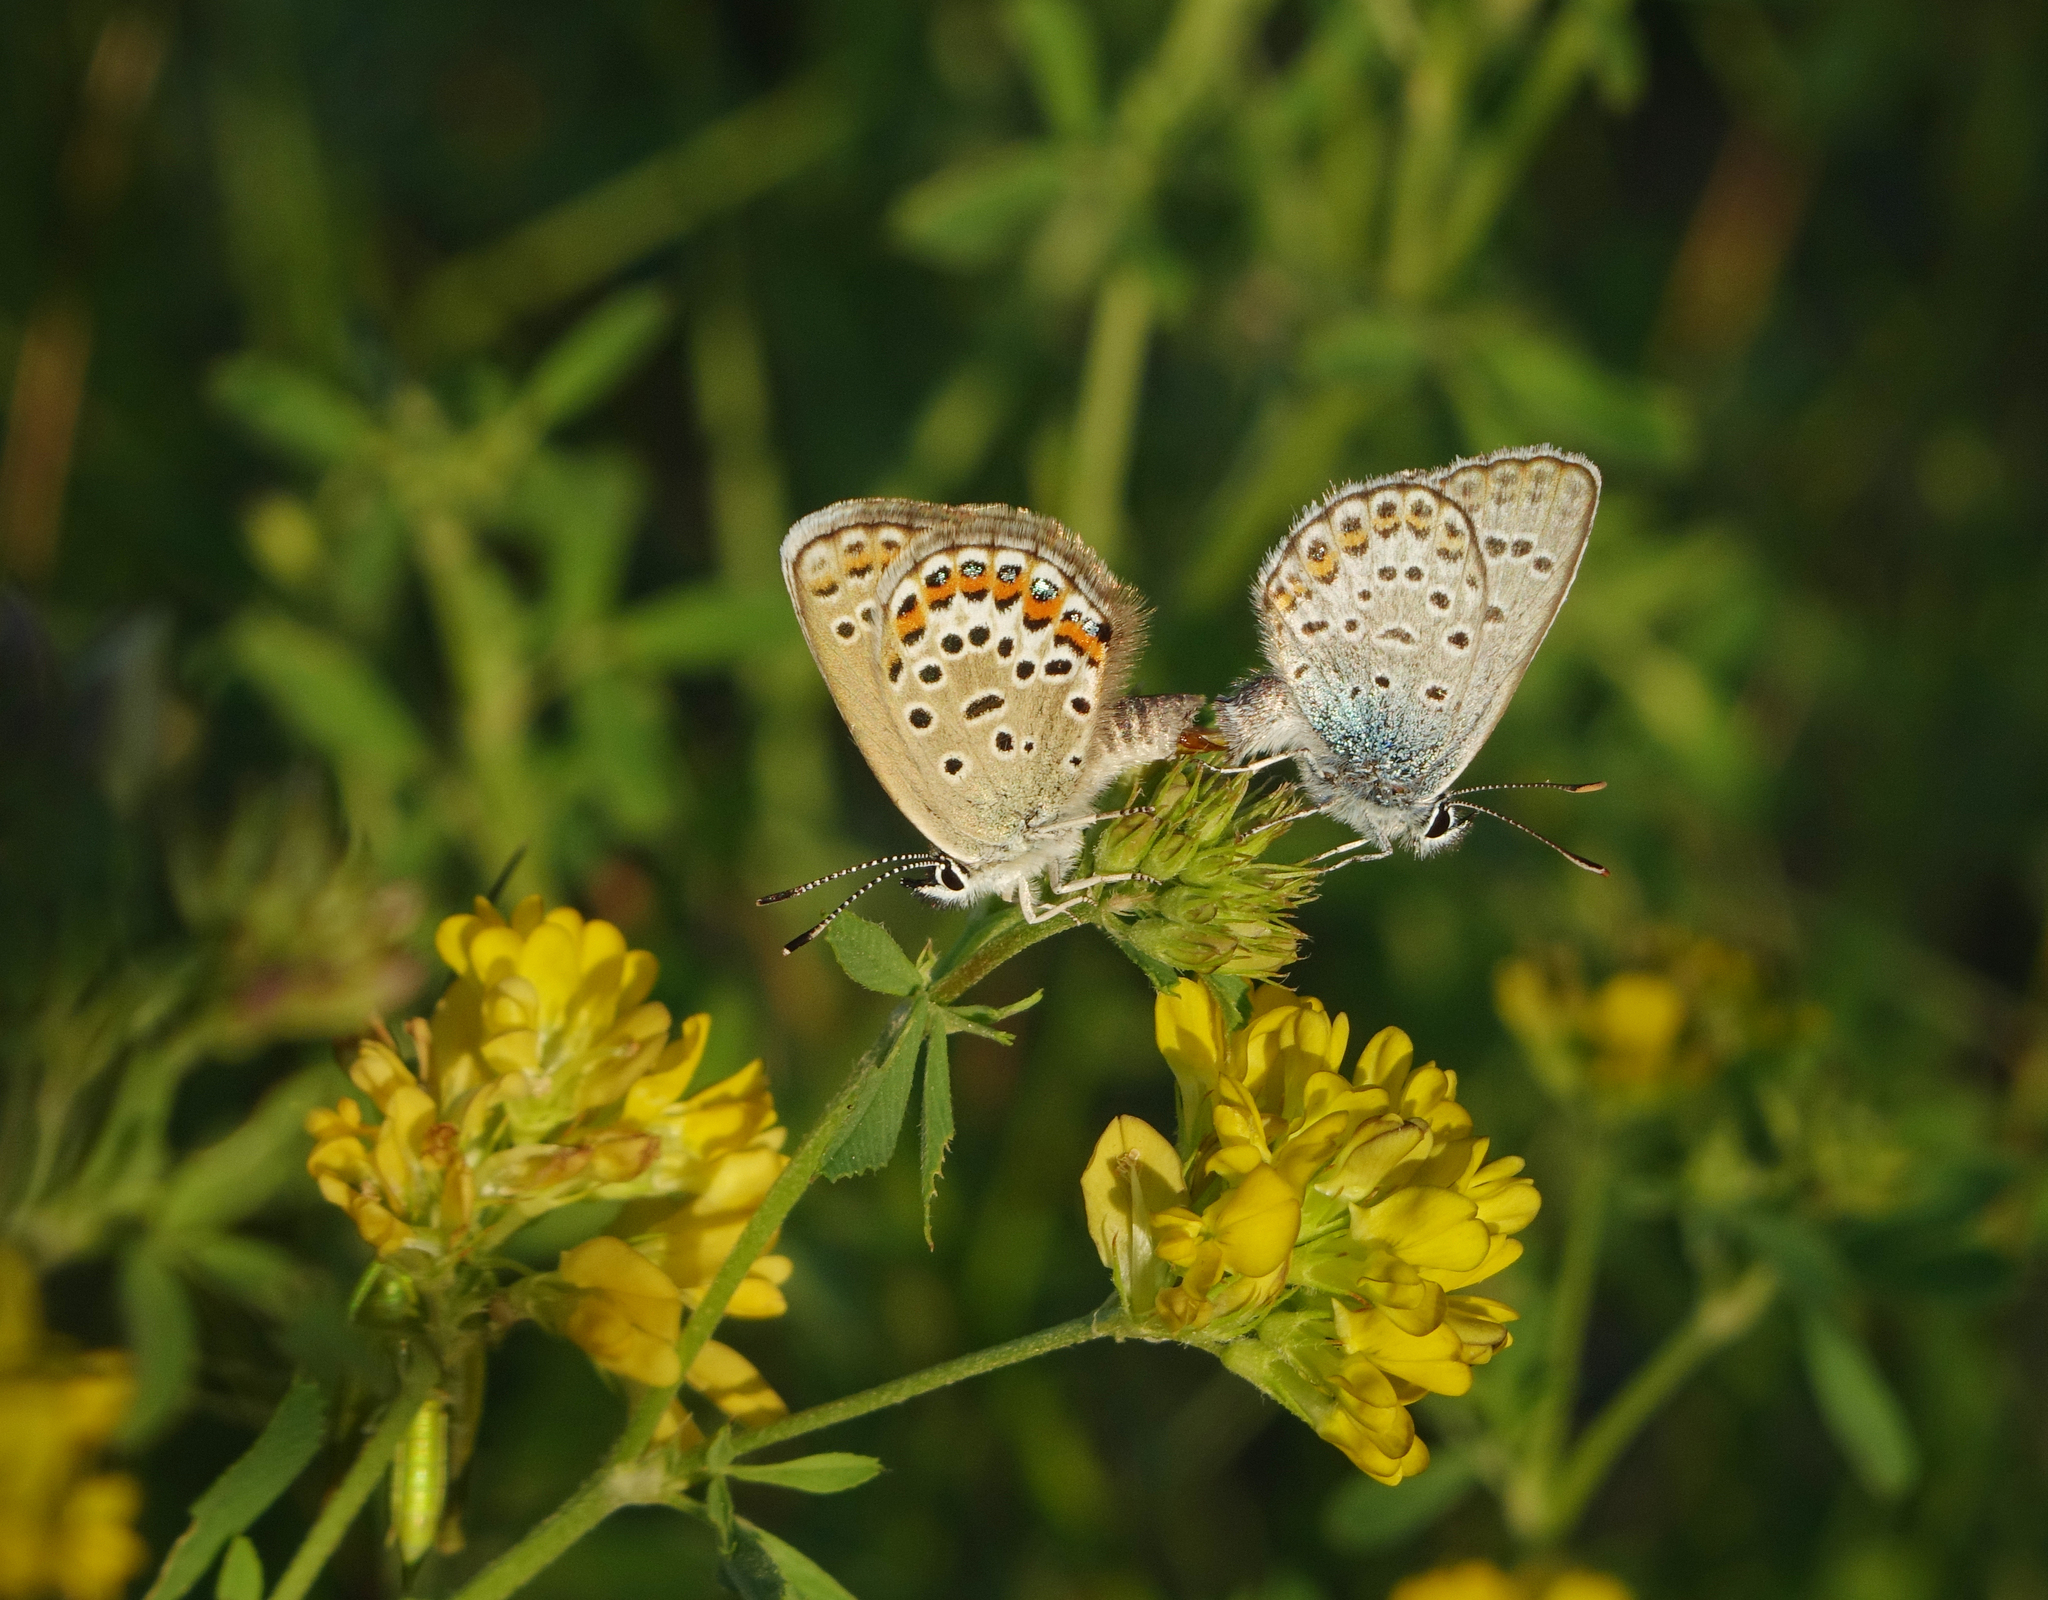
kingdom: Animalia
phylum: Arthropoda
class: Insecta
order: Lepidoptera
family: Lycaenidae
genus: Plebejus
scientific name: Plebejus argus
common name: Silver-studded blue
